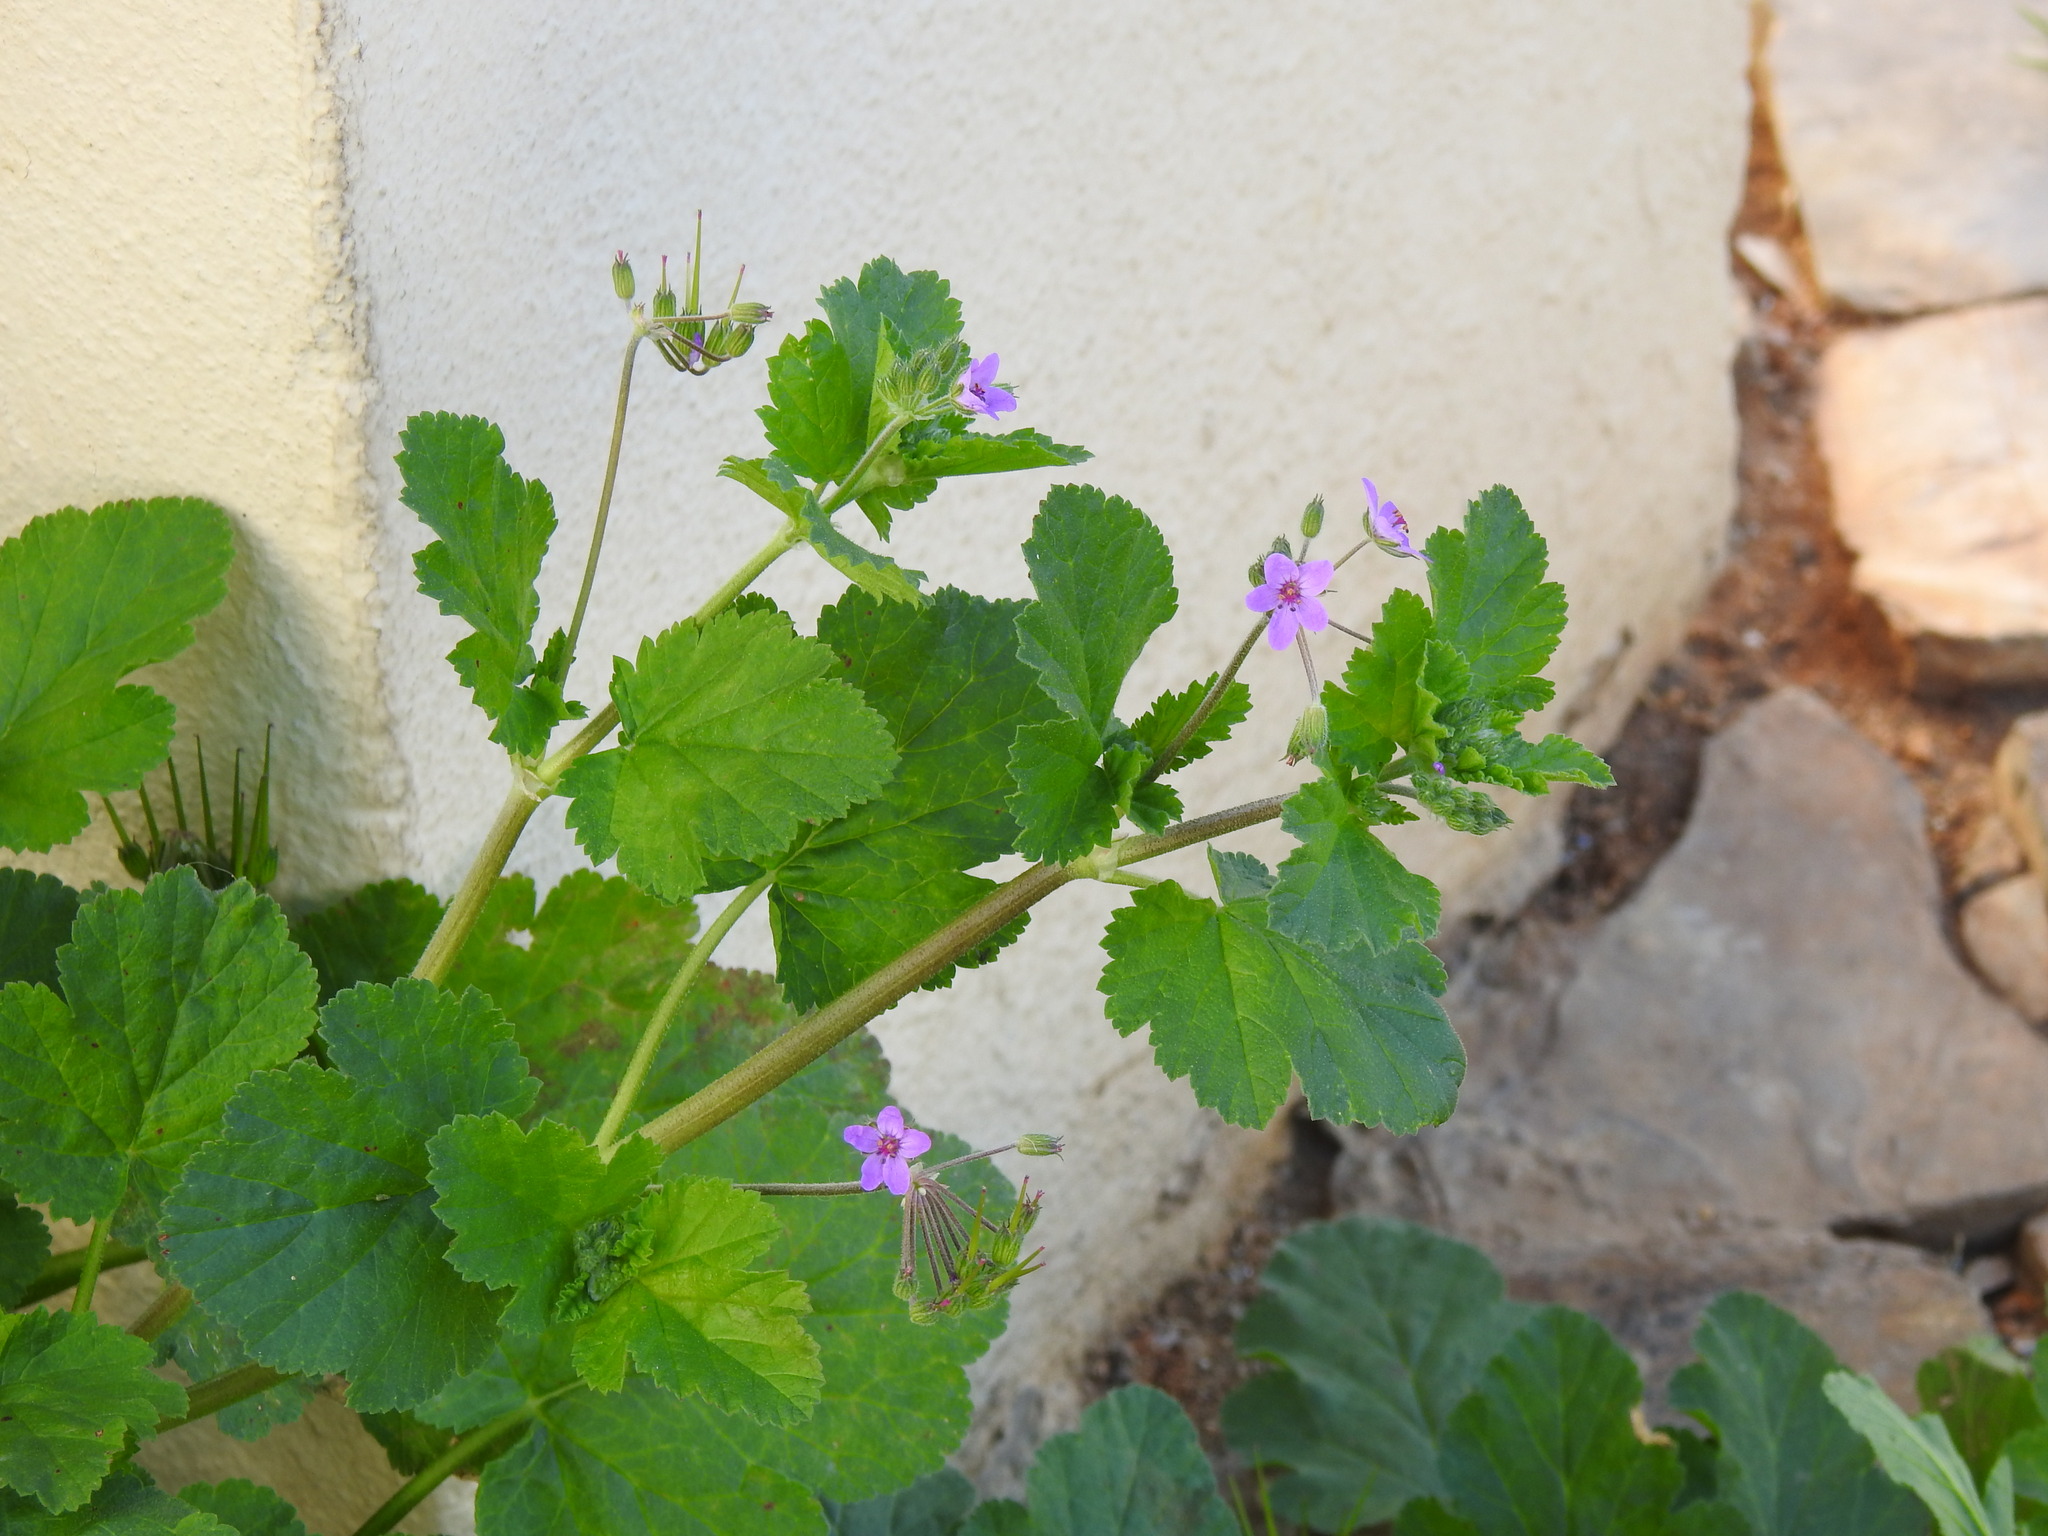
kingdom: Plantae
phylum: Tracheophyta
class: Magnoliopsida
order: Geraniales
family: Geraniaceae
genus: Erodium
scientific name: Erodium malacoides
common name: Soft stork's-bill
